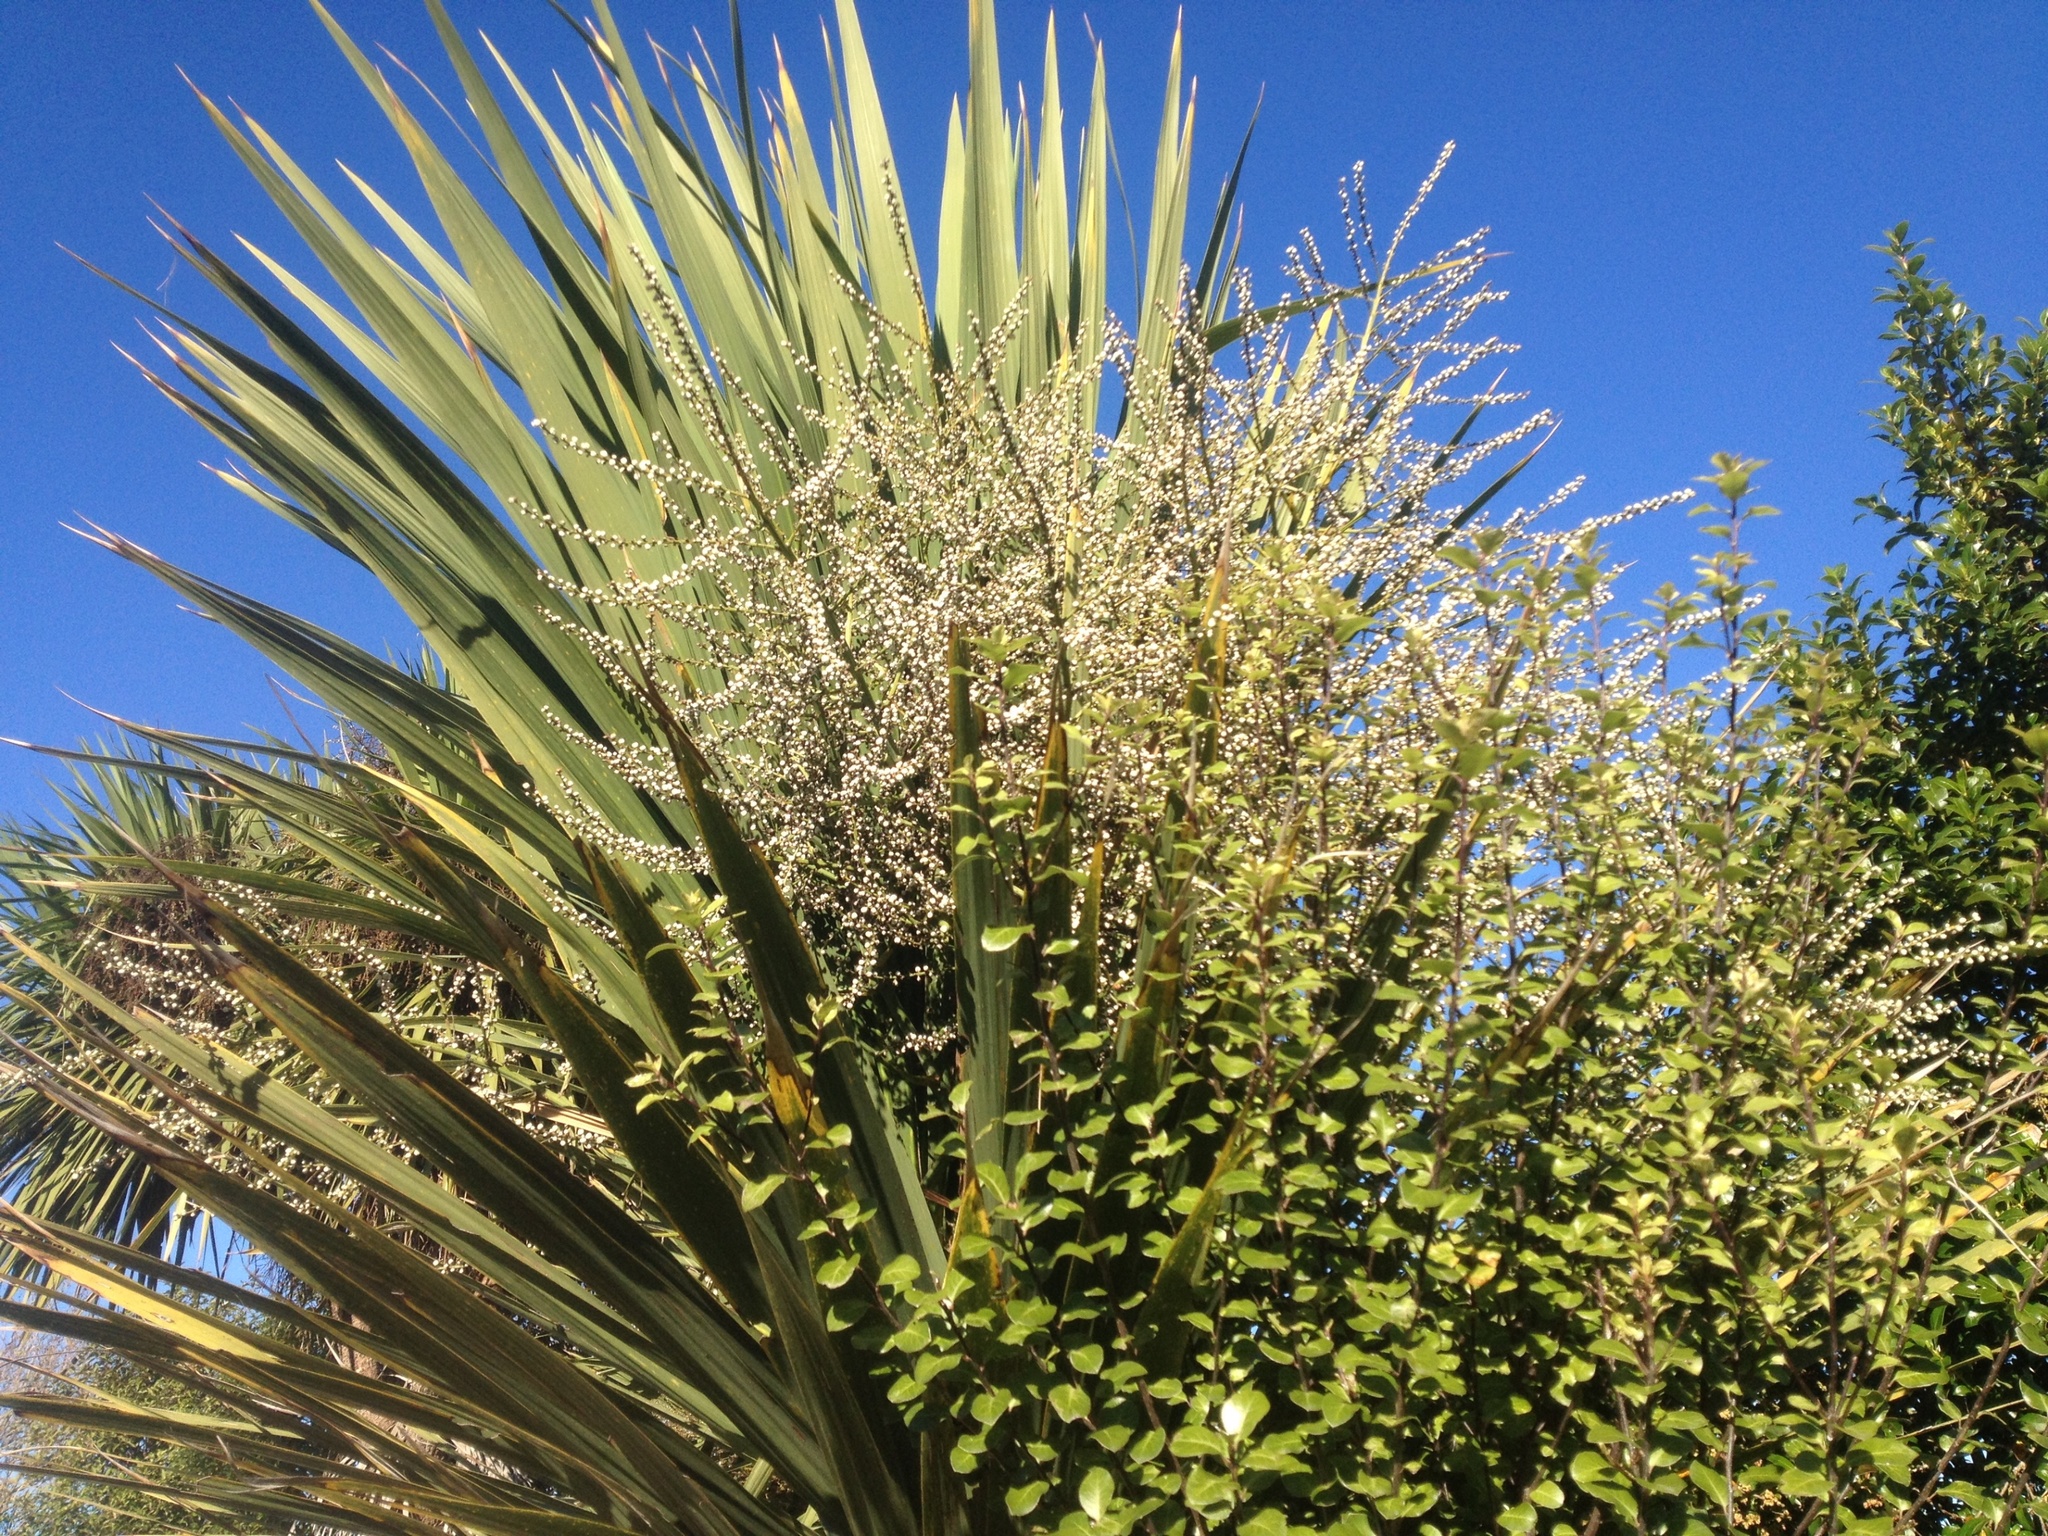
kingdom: Plantae
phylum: Tracheophyta
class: Liliopsida
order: Asparagales
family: Asparagaceae
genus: Cordyline
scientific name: Cordyline australis
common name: Cabbage-palm
